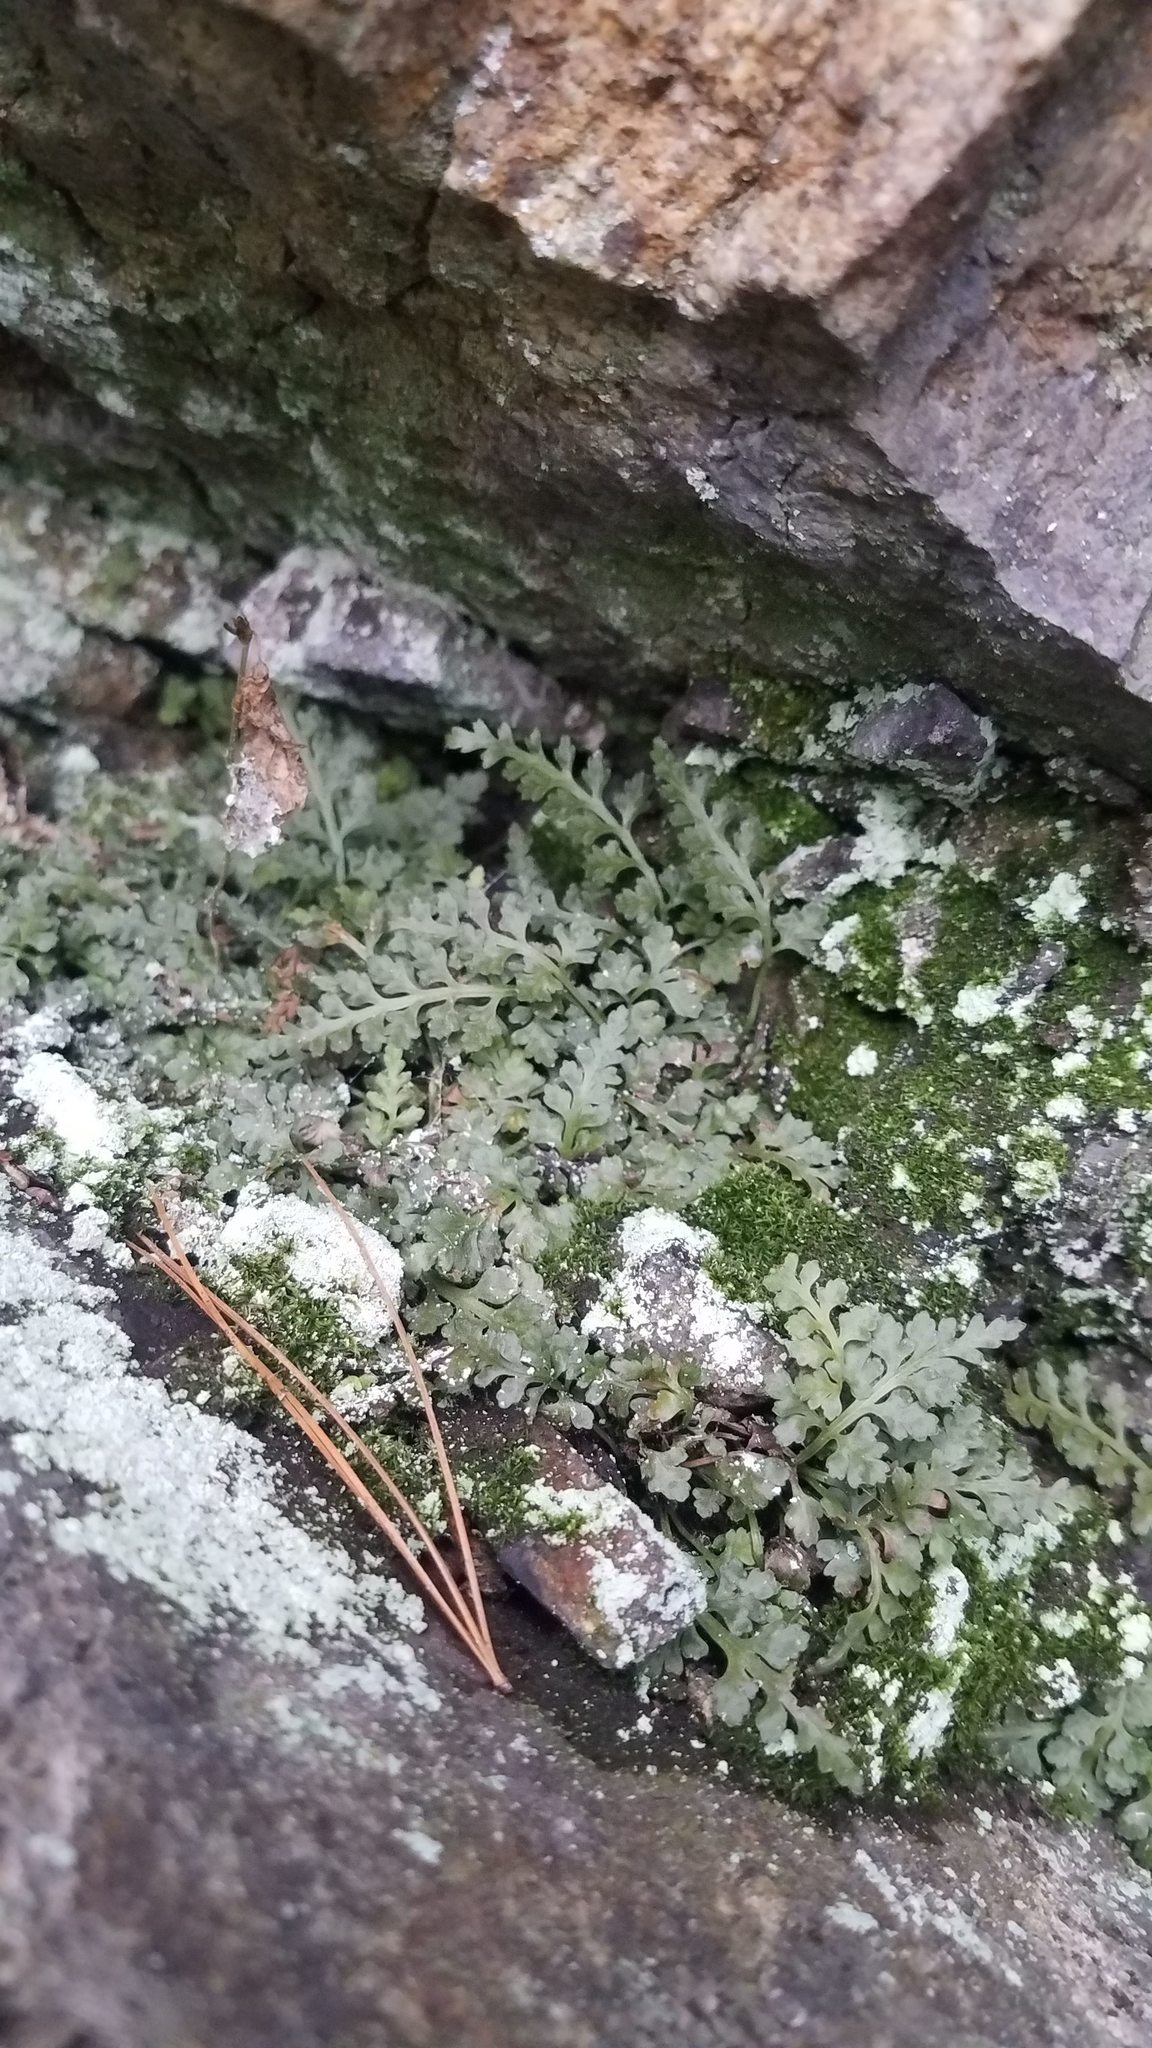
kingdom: Plantae
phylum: Tracheophyta
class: Polypodiopsida
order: Polypodiales
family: Aspleniaceae
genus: Asplenium
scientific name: Asplenium montanum
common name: Mountain spleenwort
